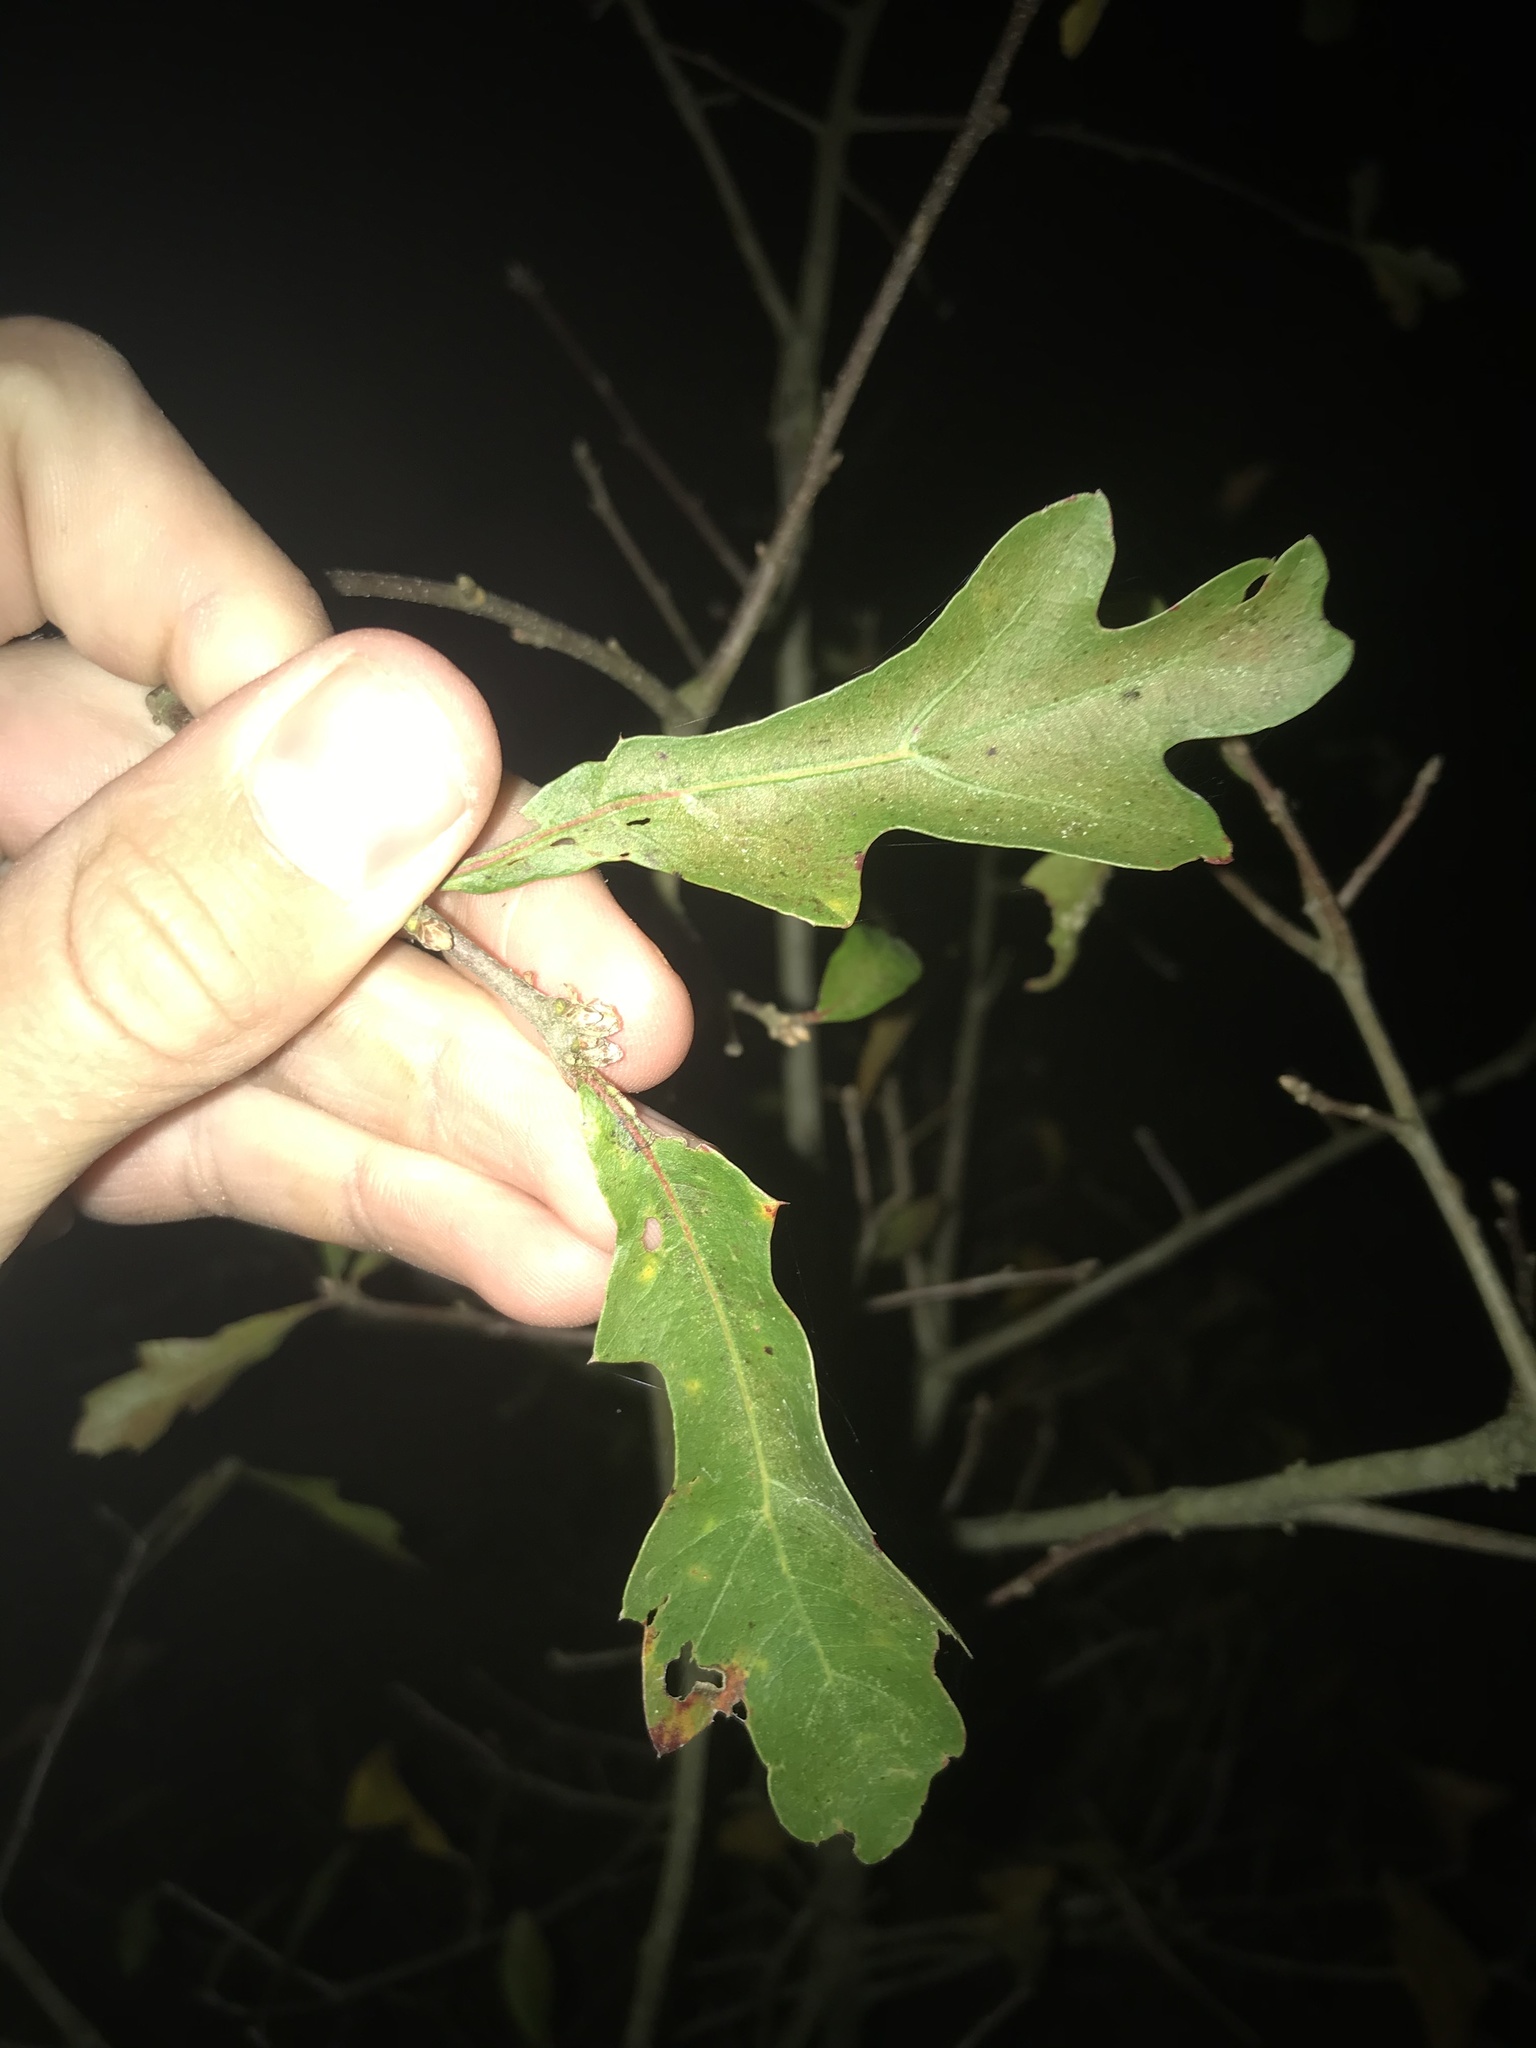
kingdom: Plantae
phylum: Tracheophyta
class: Magnoliopsida
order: Fagales
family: Fagaceae
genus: Quercus
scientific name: Quercus nigra
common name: Water oak
